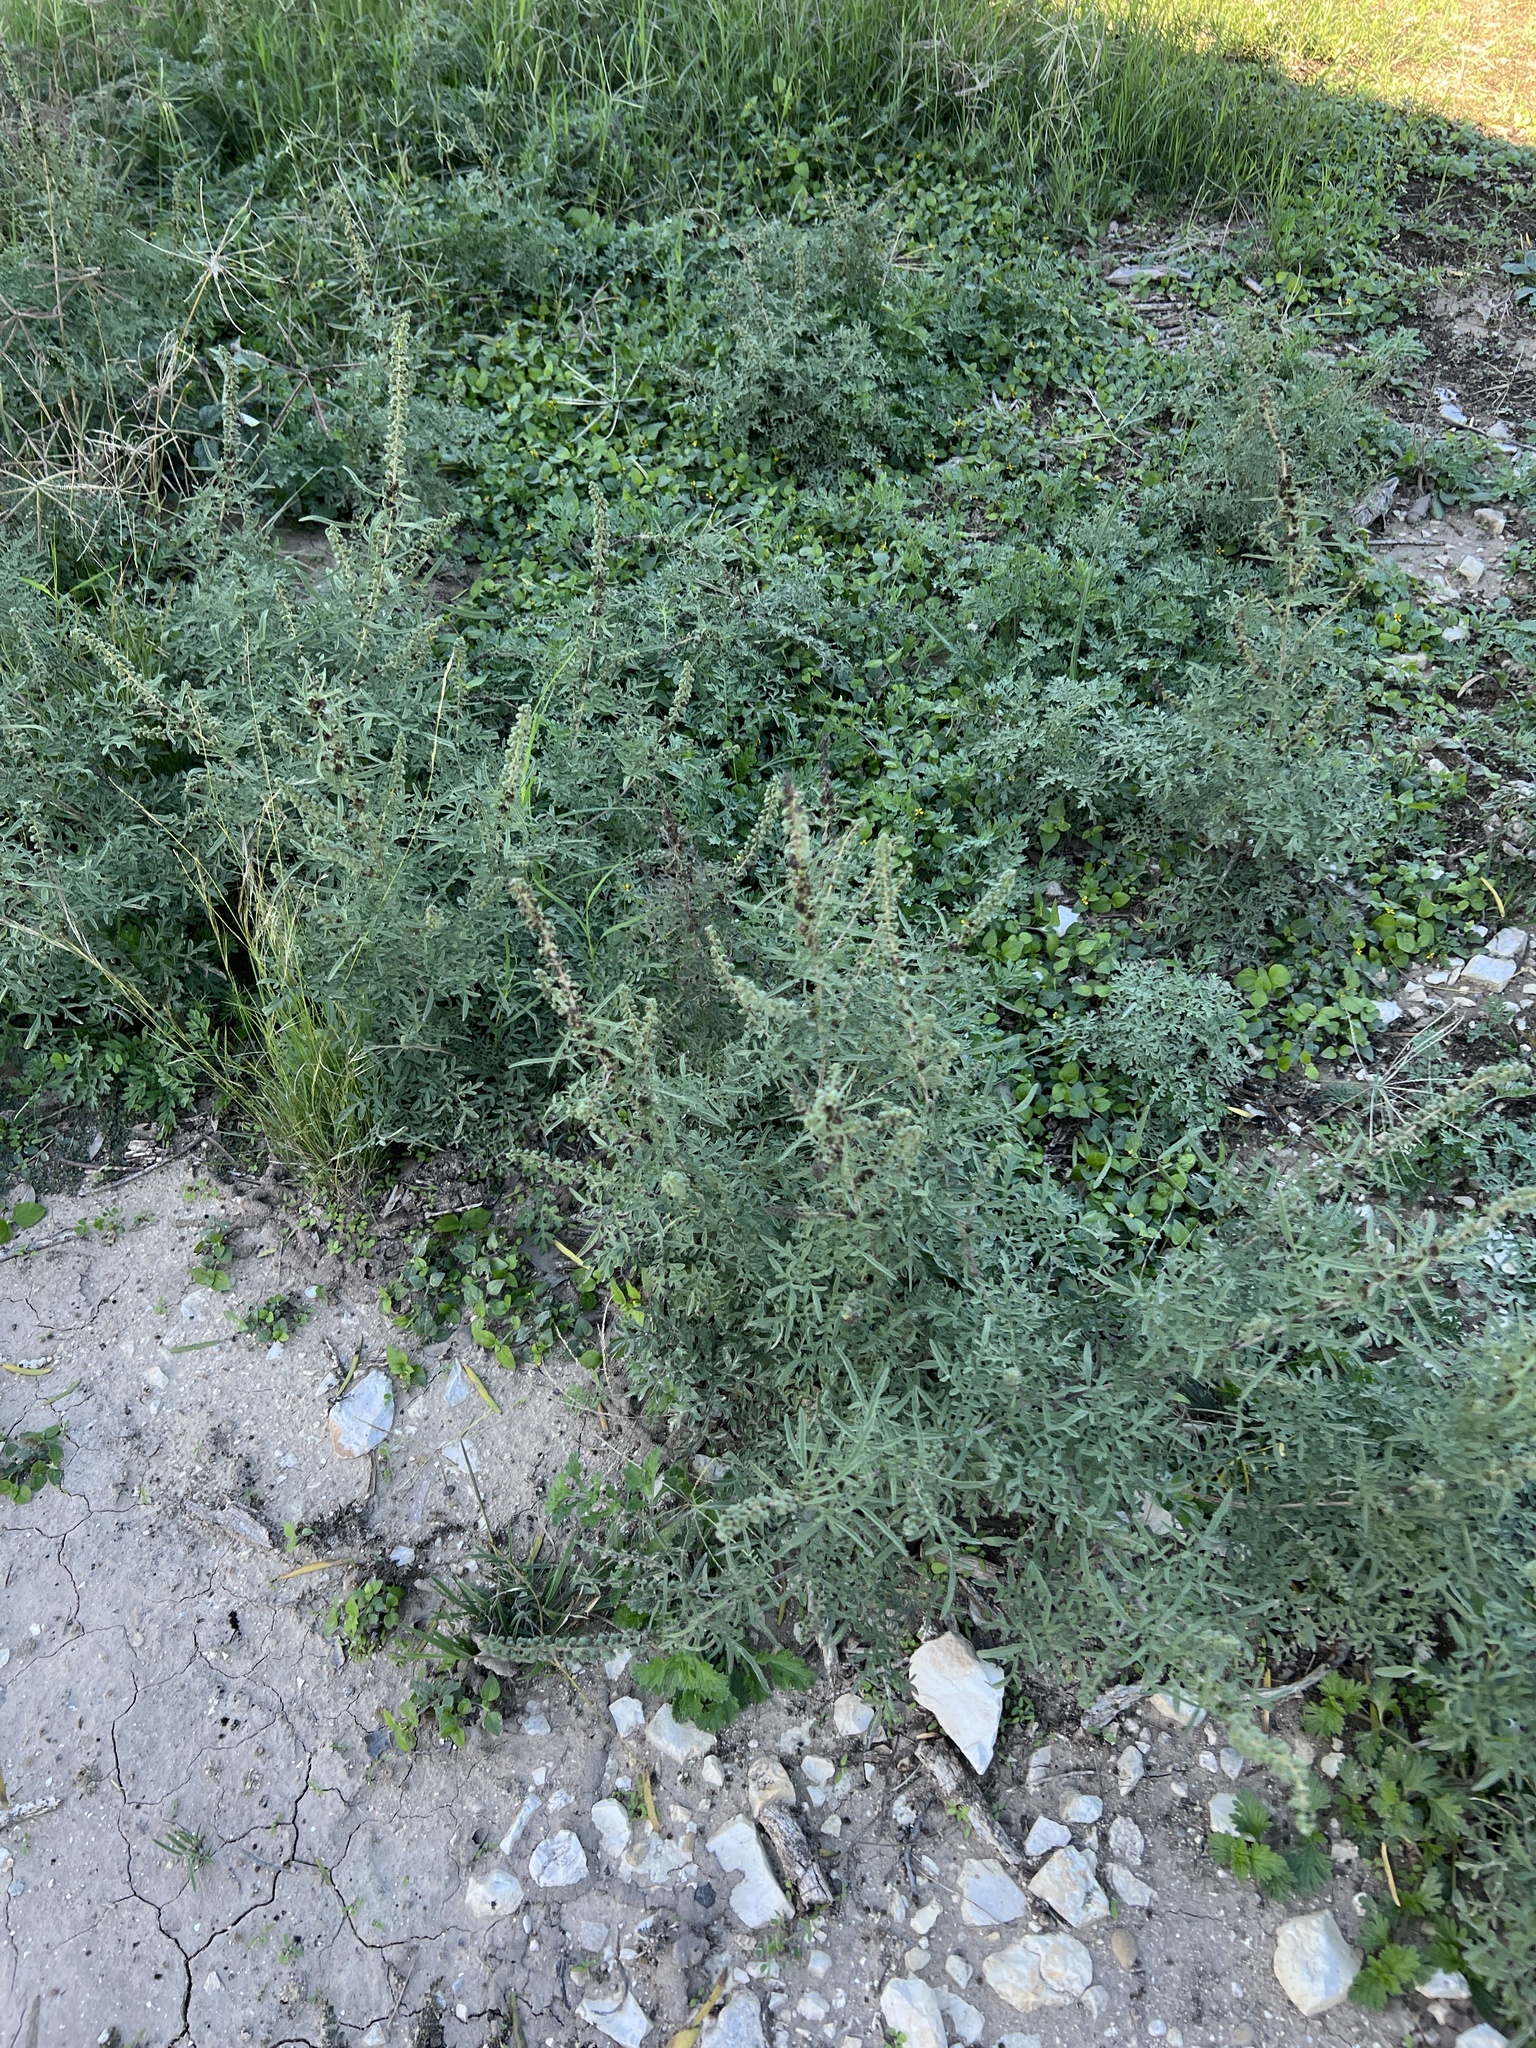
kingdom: Plantae
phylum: Tracheophyta
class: Magnoliopsida
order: Asterales
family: Asteraceae
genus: Ambrosia
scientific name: Ambrosia confertiflora
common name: Bur ragweed
